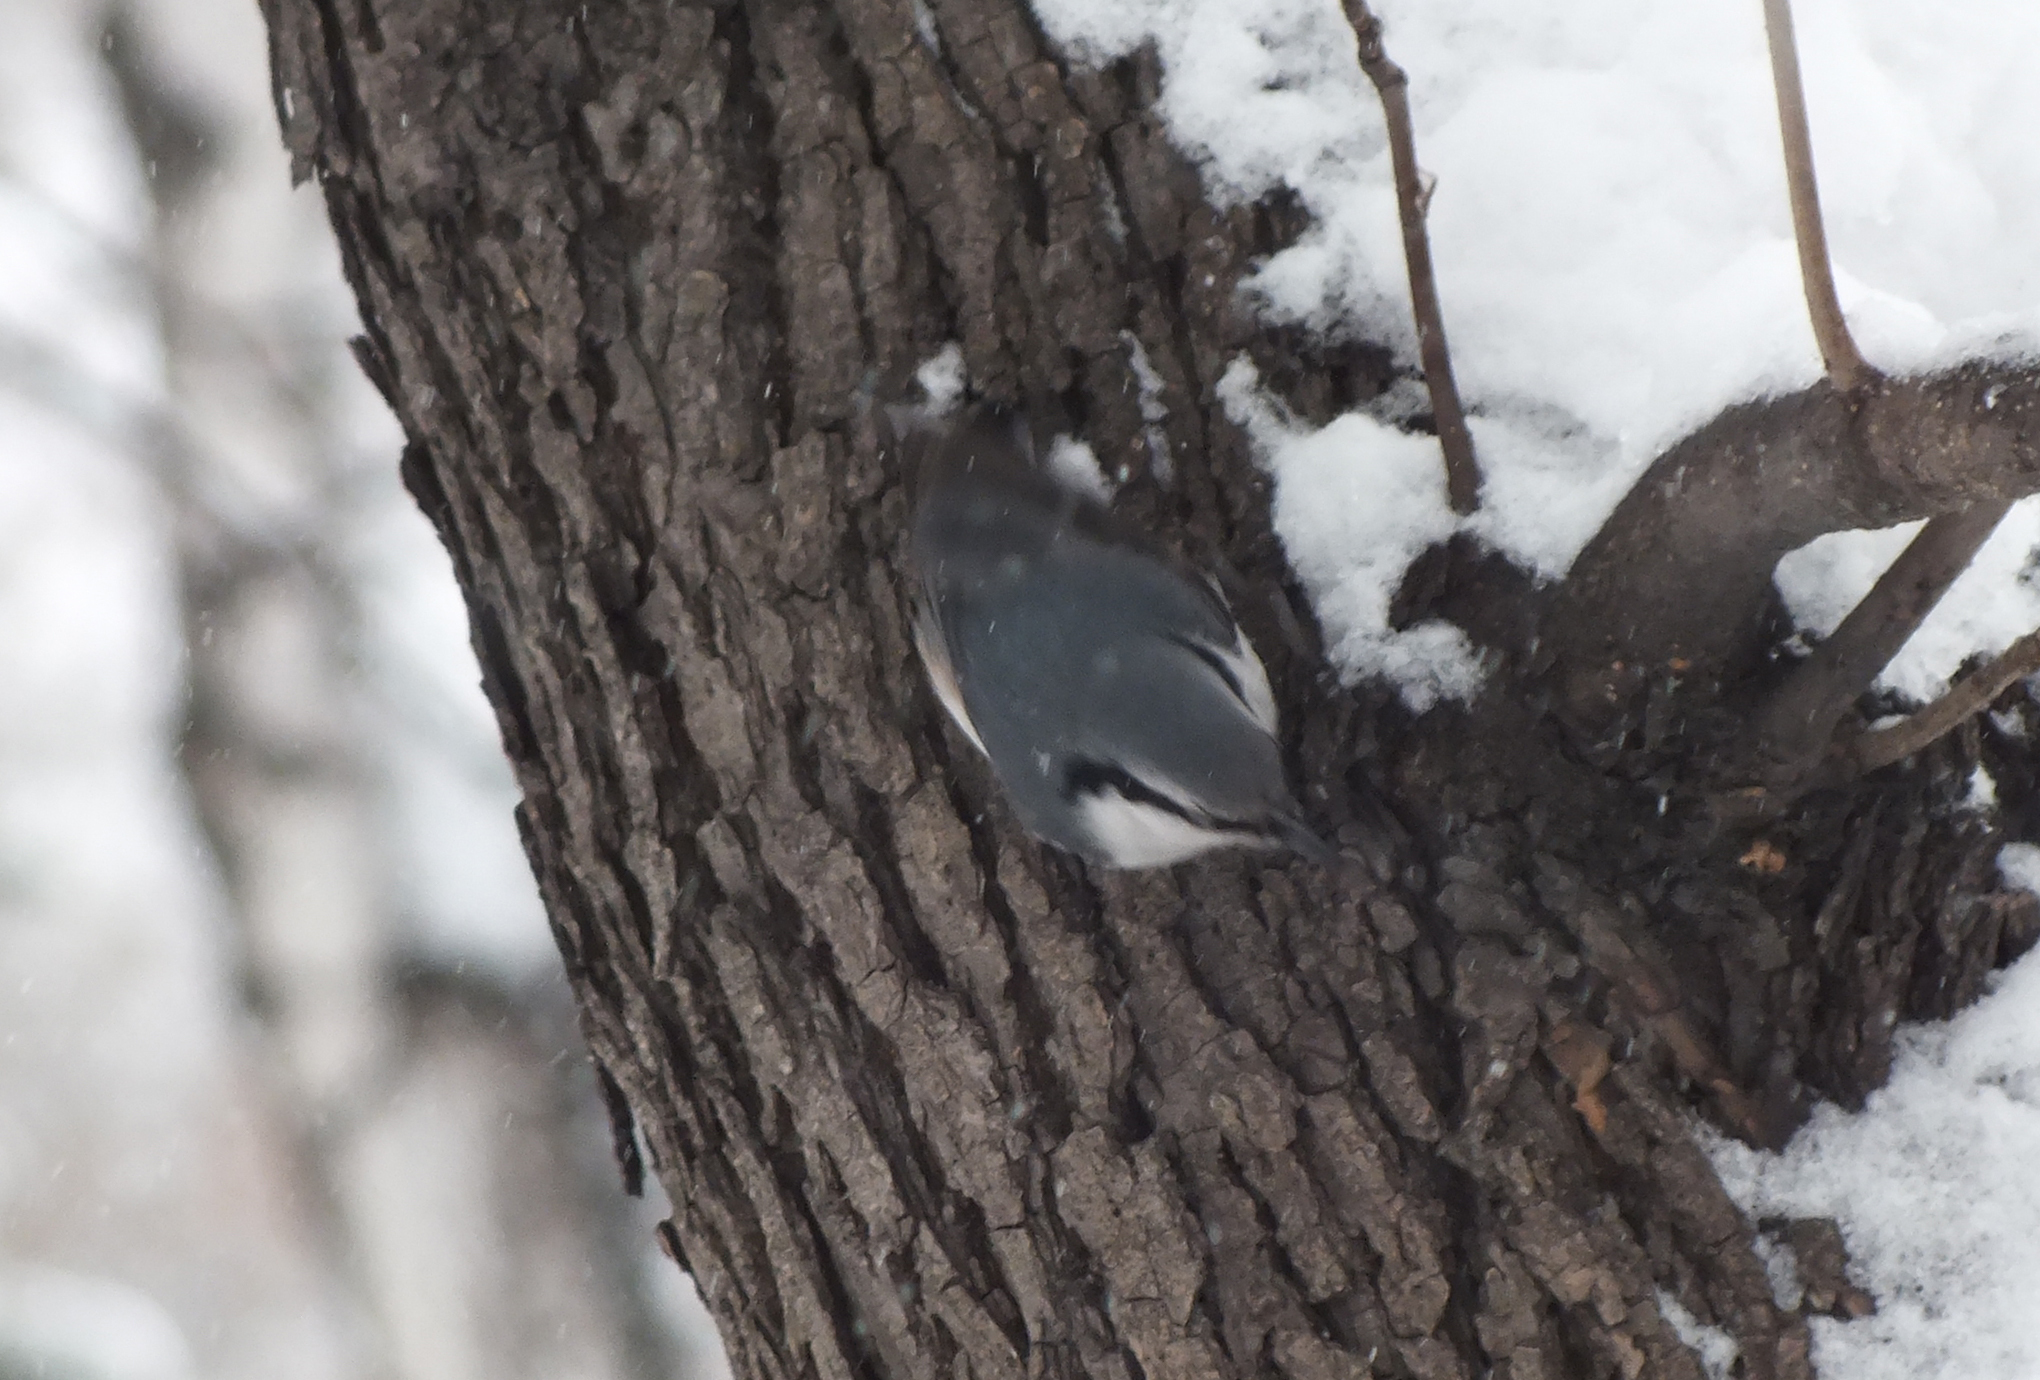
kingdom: Animalia
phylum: Chordata
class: Aves
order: Passeriformes
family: Sittidae
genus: Sitta
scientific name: Sitta europaea
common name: Eurasian nuthatch
